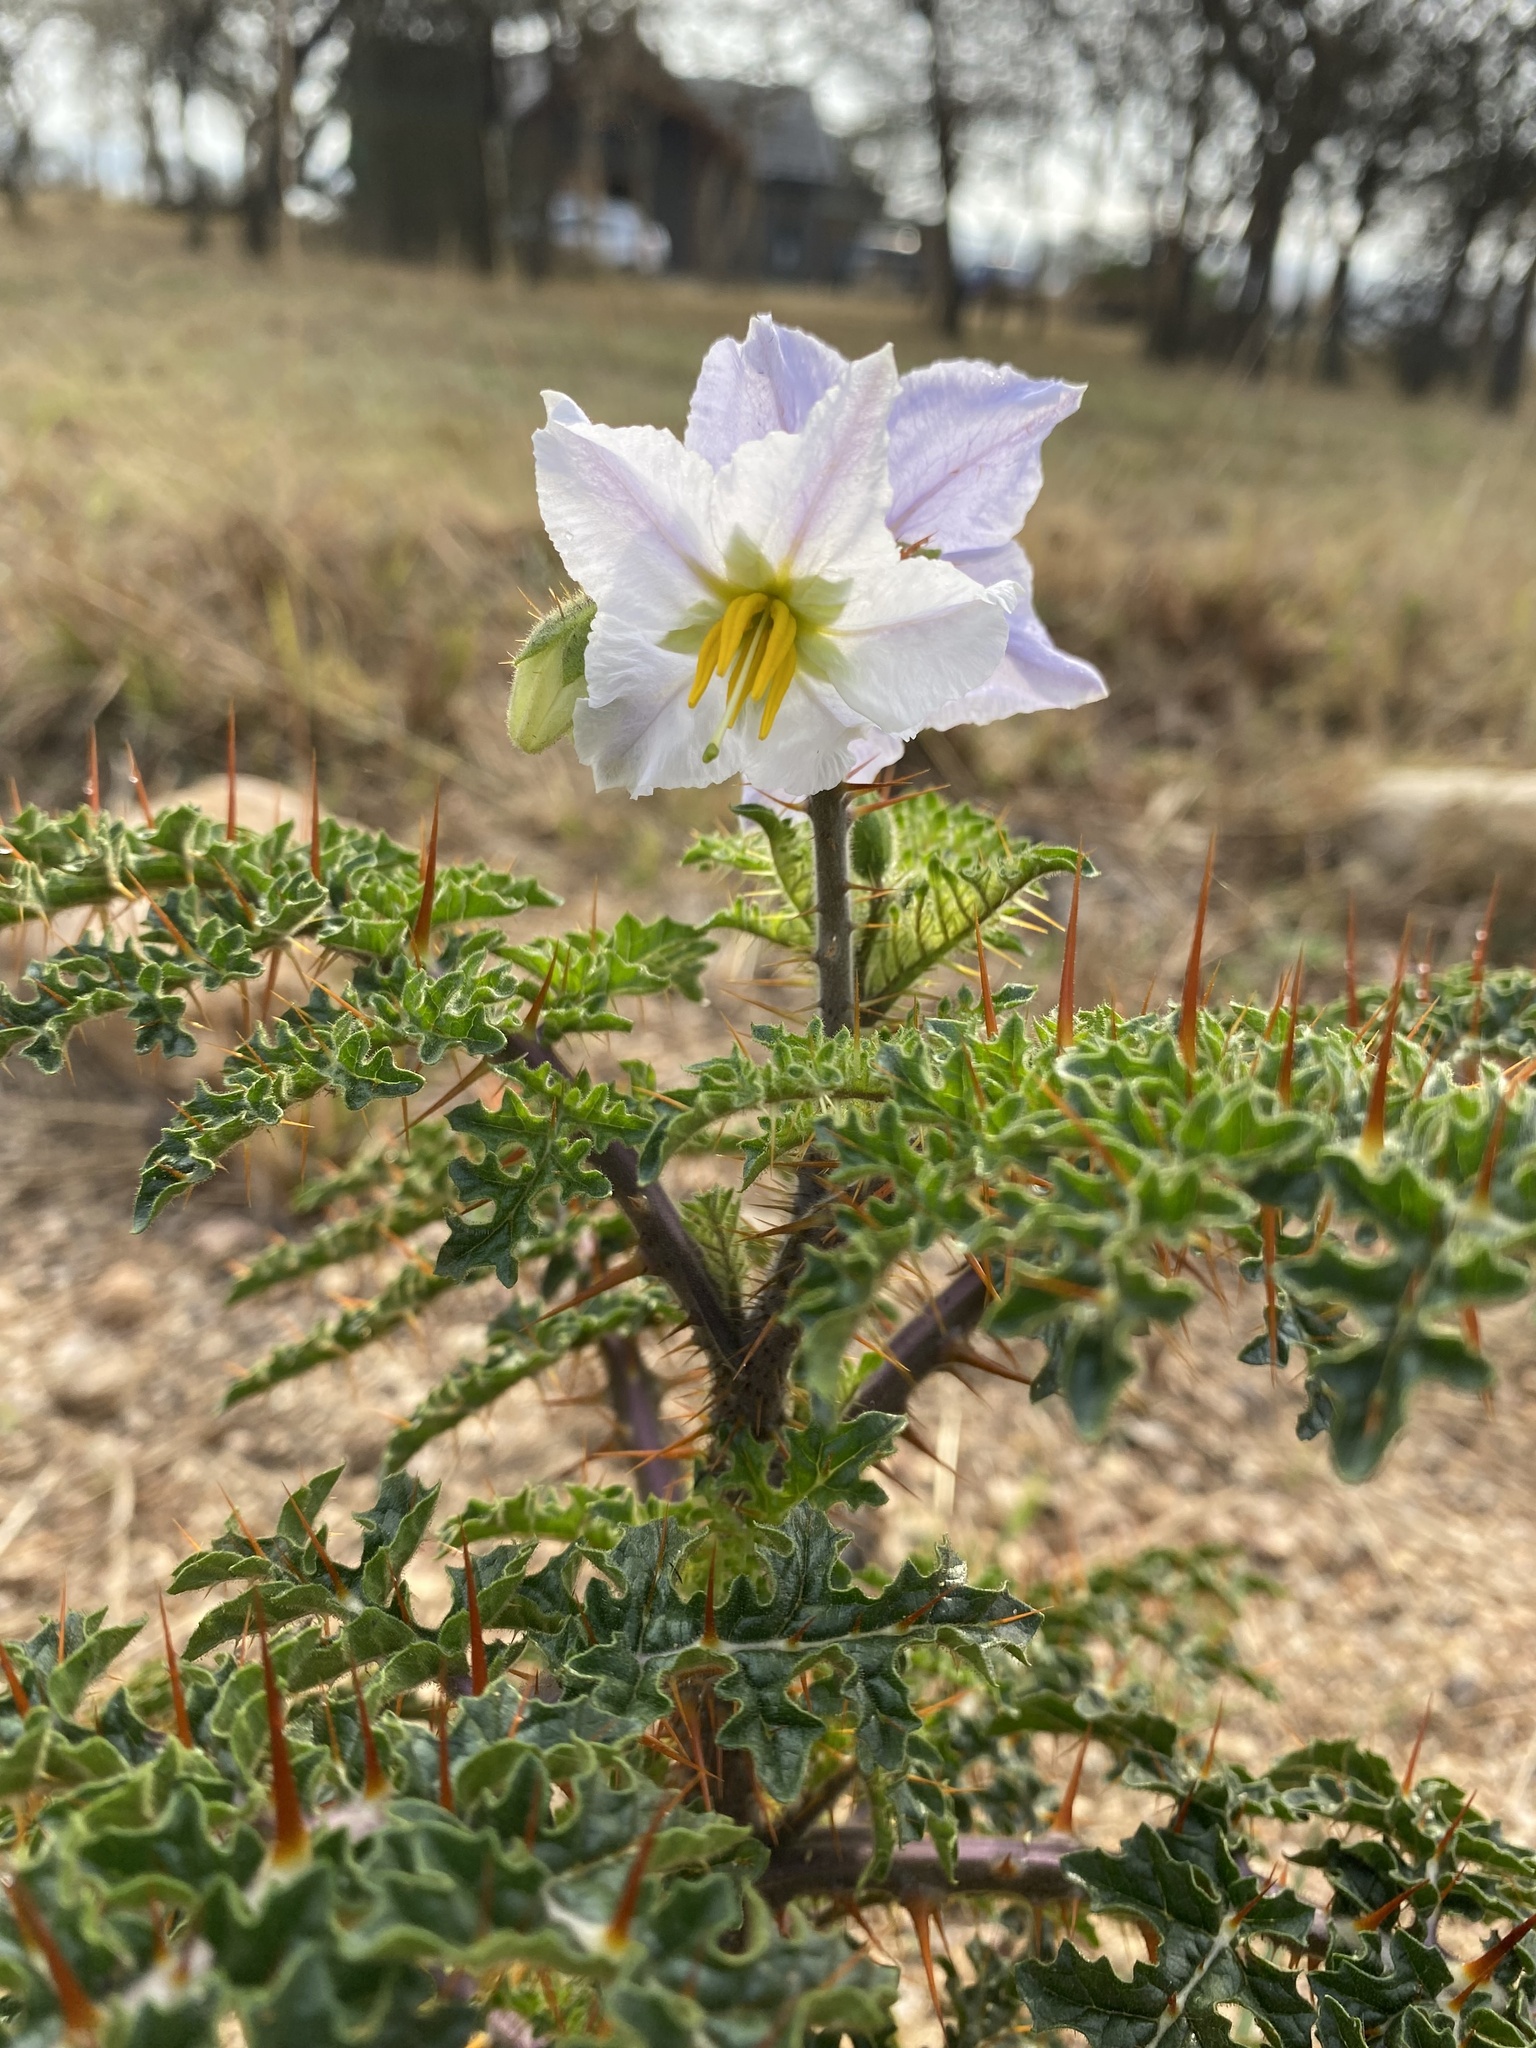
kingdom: Plantae
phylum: Tracheophyta
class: Magnoliopsida
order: Solanales
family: Solanaceae
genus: Solanum
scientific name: Solanum sisymbriifolium
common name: Red buffalo-bur
